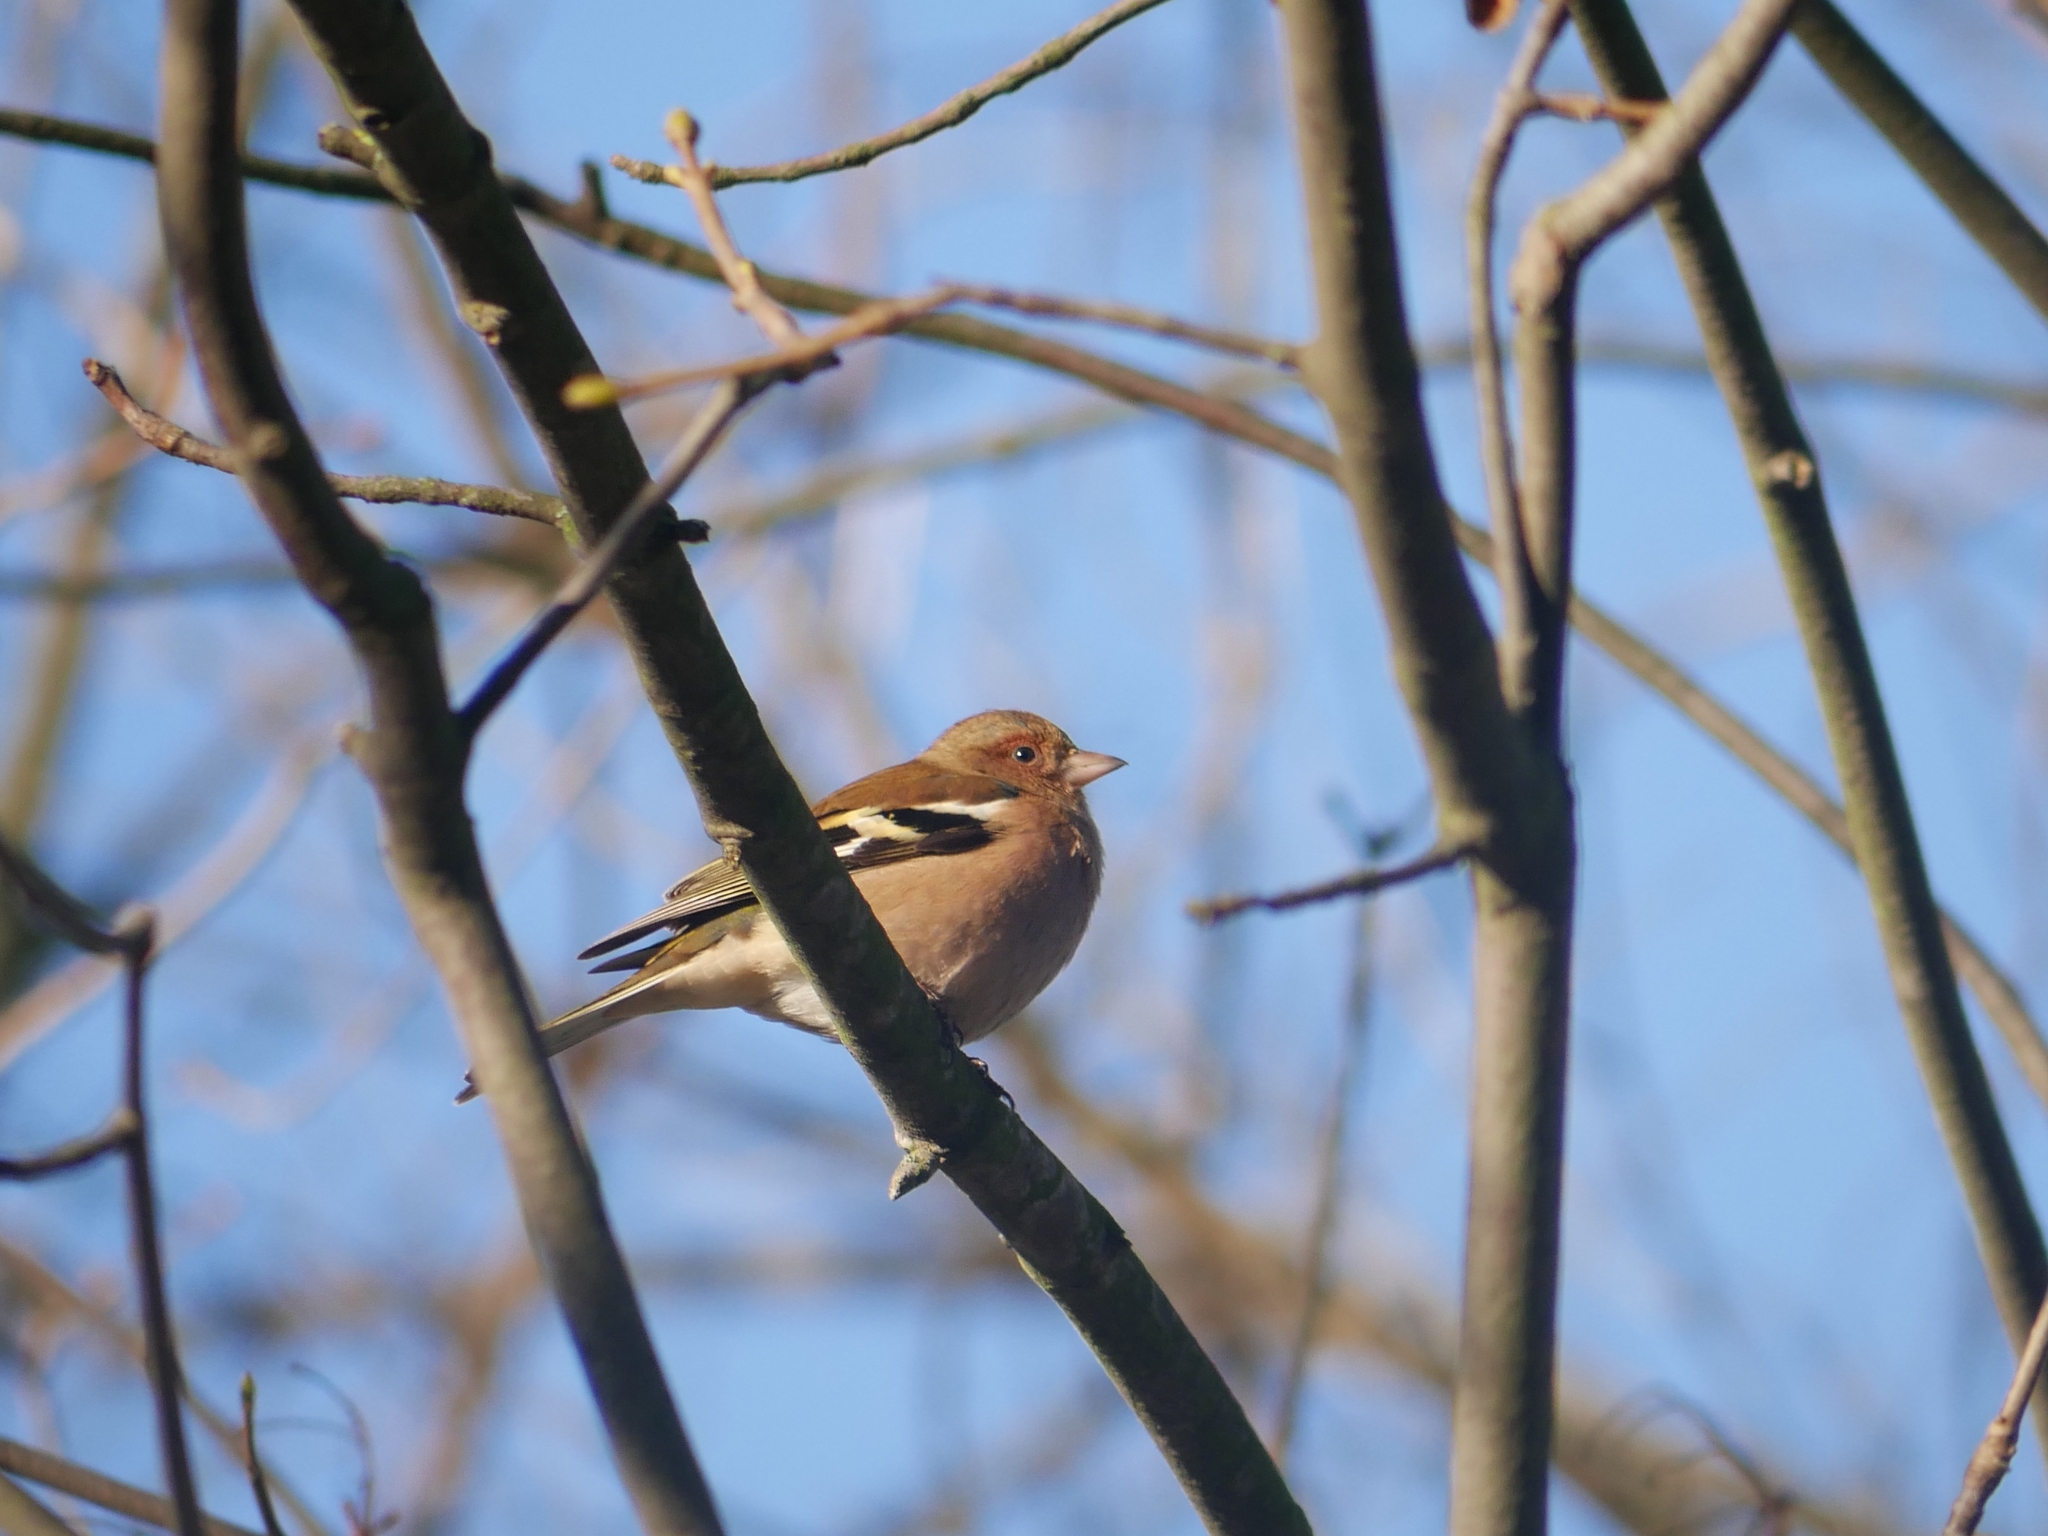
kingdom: Animalia
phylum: Chordata
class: Aves
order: Passeriformes
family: Fringillidae
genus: Fringilla
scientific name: Fringilla coelebs
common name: Common chaffinch
